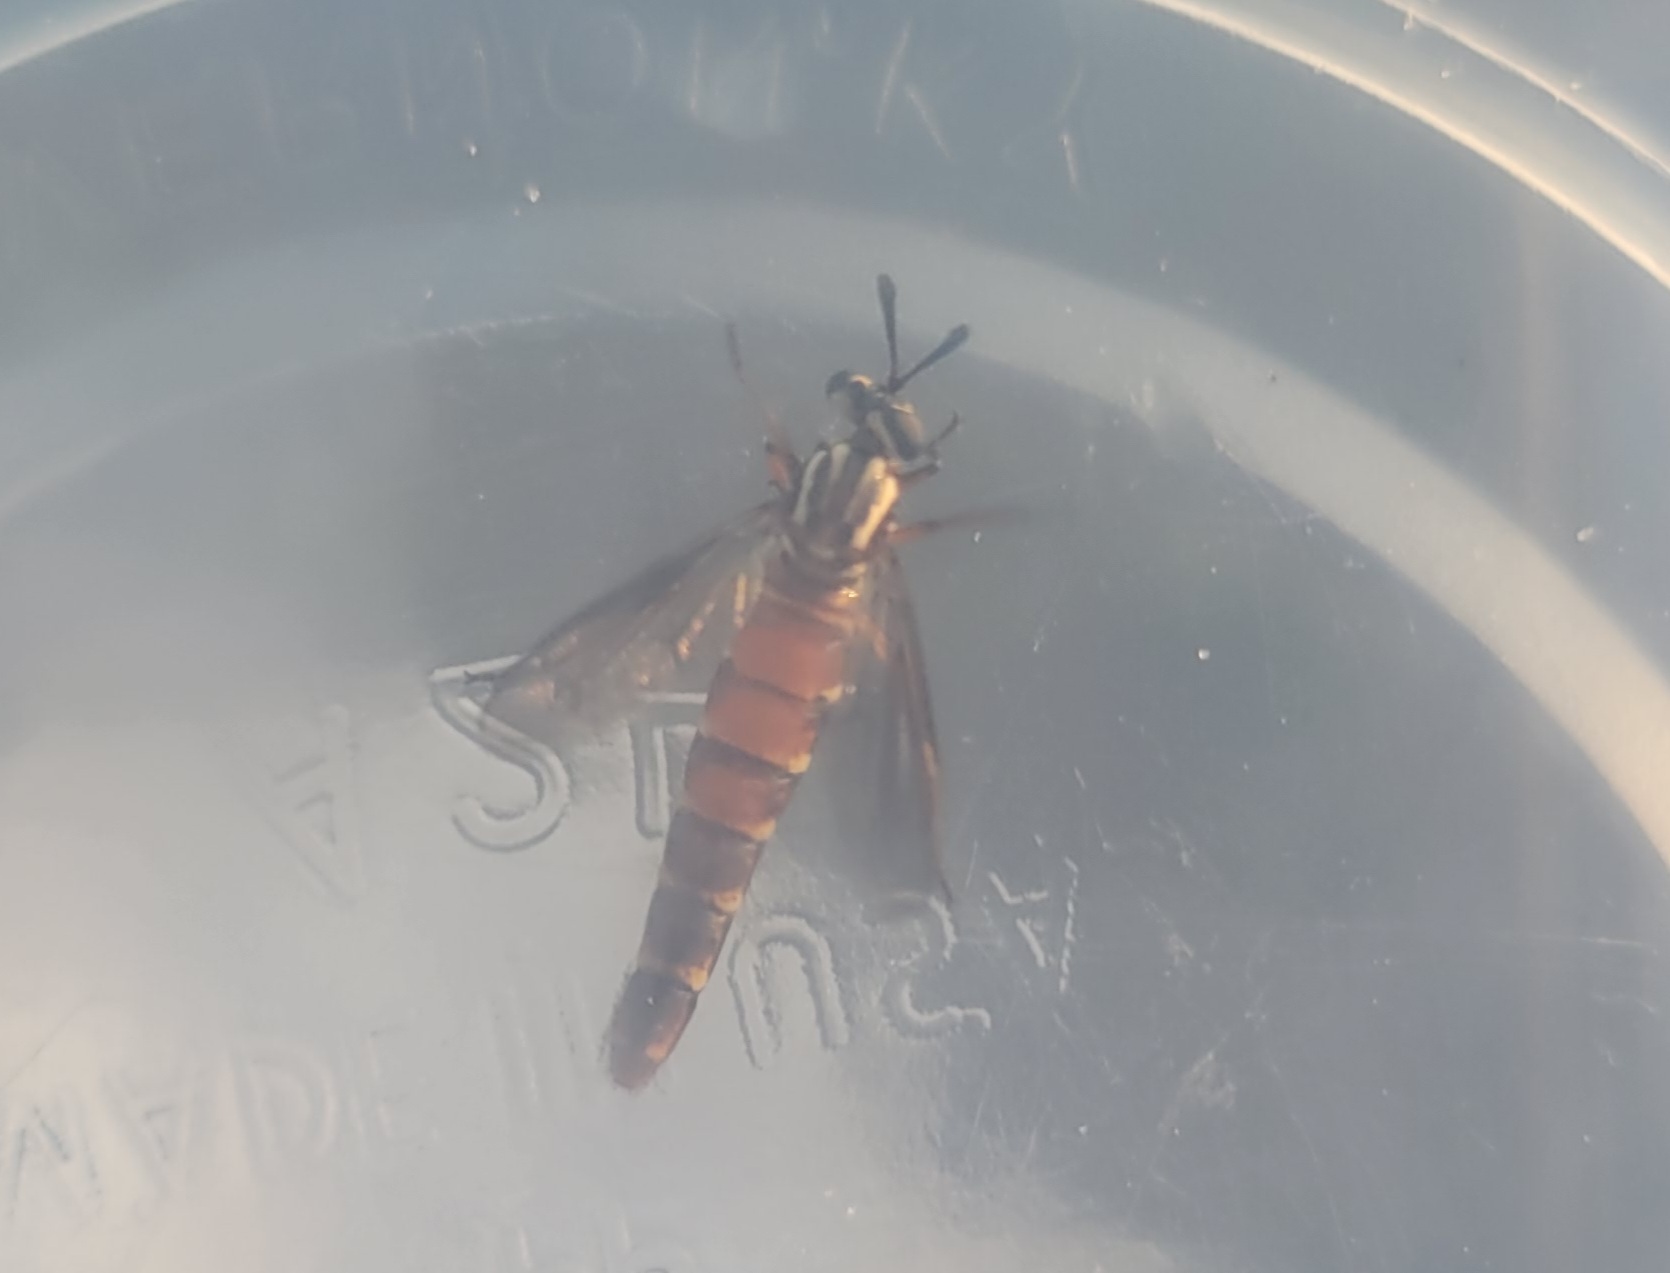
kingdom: Animalia
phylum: Arthropoda
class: Insecta
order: Diptera
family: Mydidae
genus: Nemomydas
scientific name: Nemomydas melanopogon
